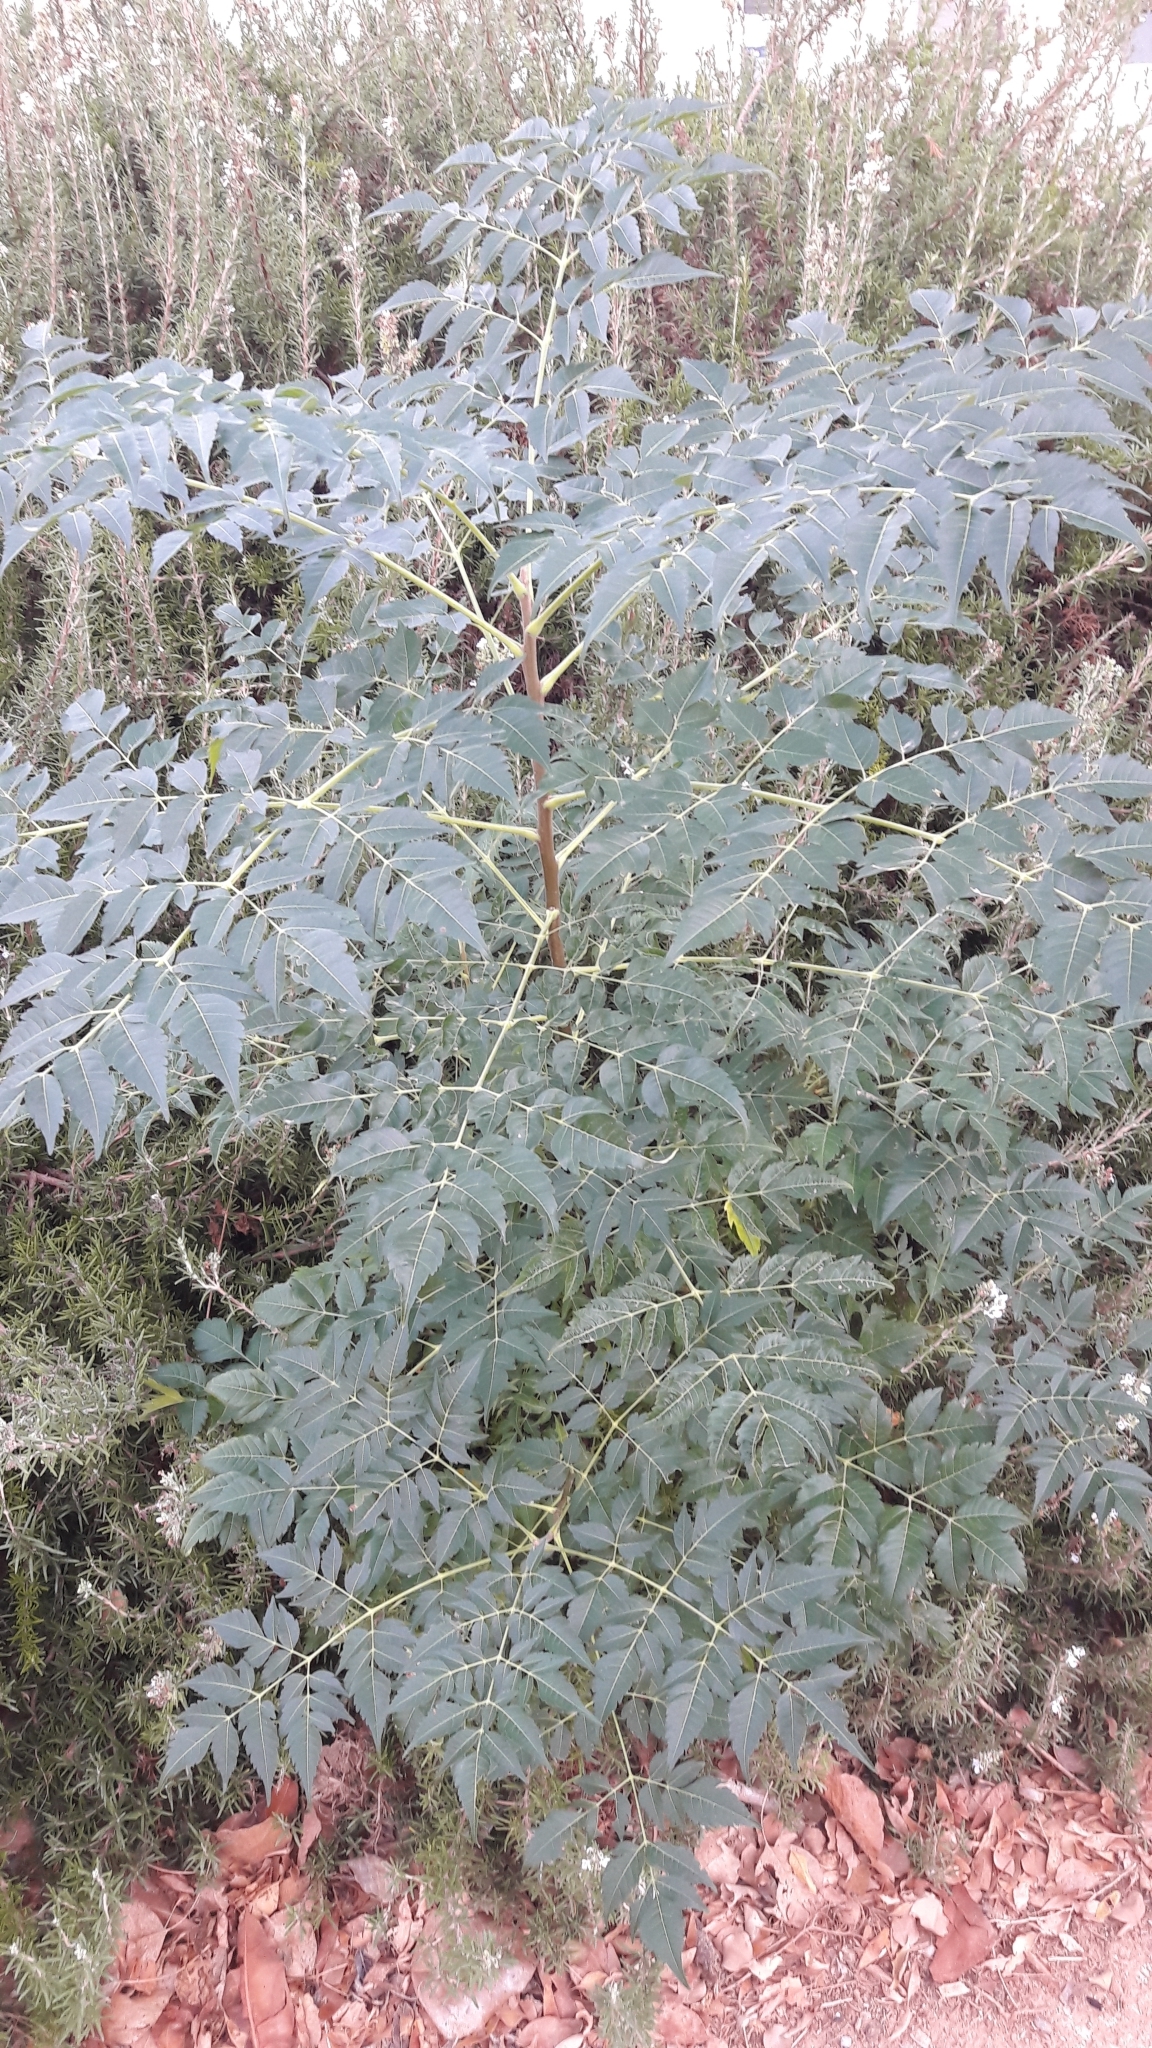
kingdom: Plantae
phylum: Tracheophyta
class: Magnoliopsida
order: Sapindales
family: Meliaceae
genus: Melia
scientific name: Melia azedarach
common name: Chinaberrytree
